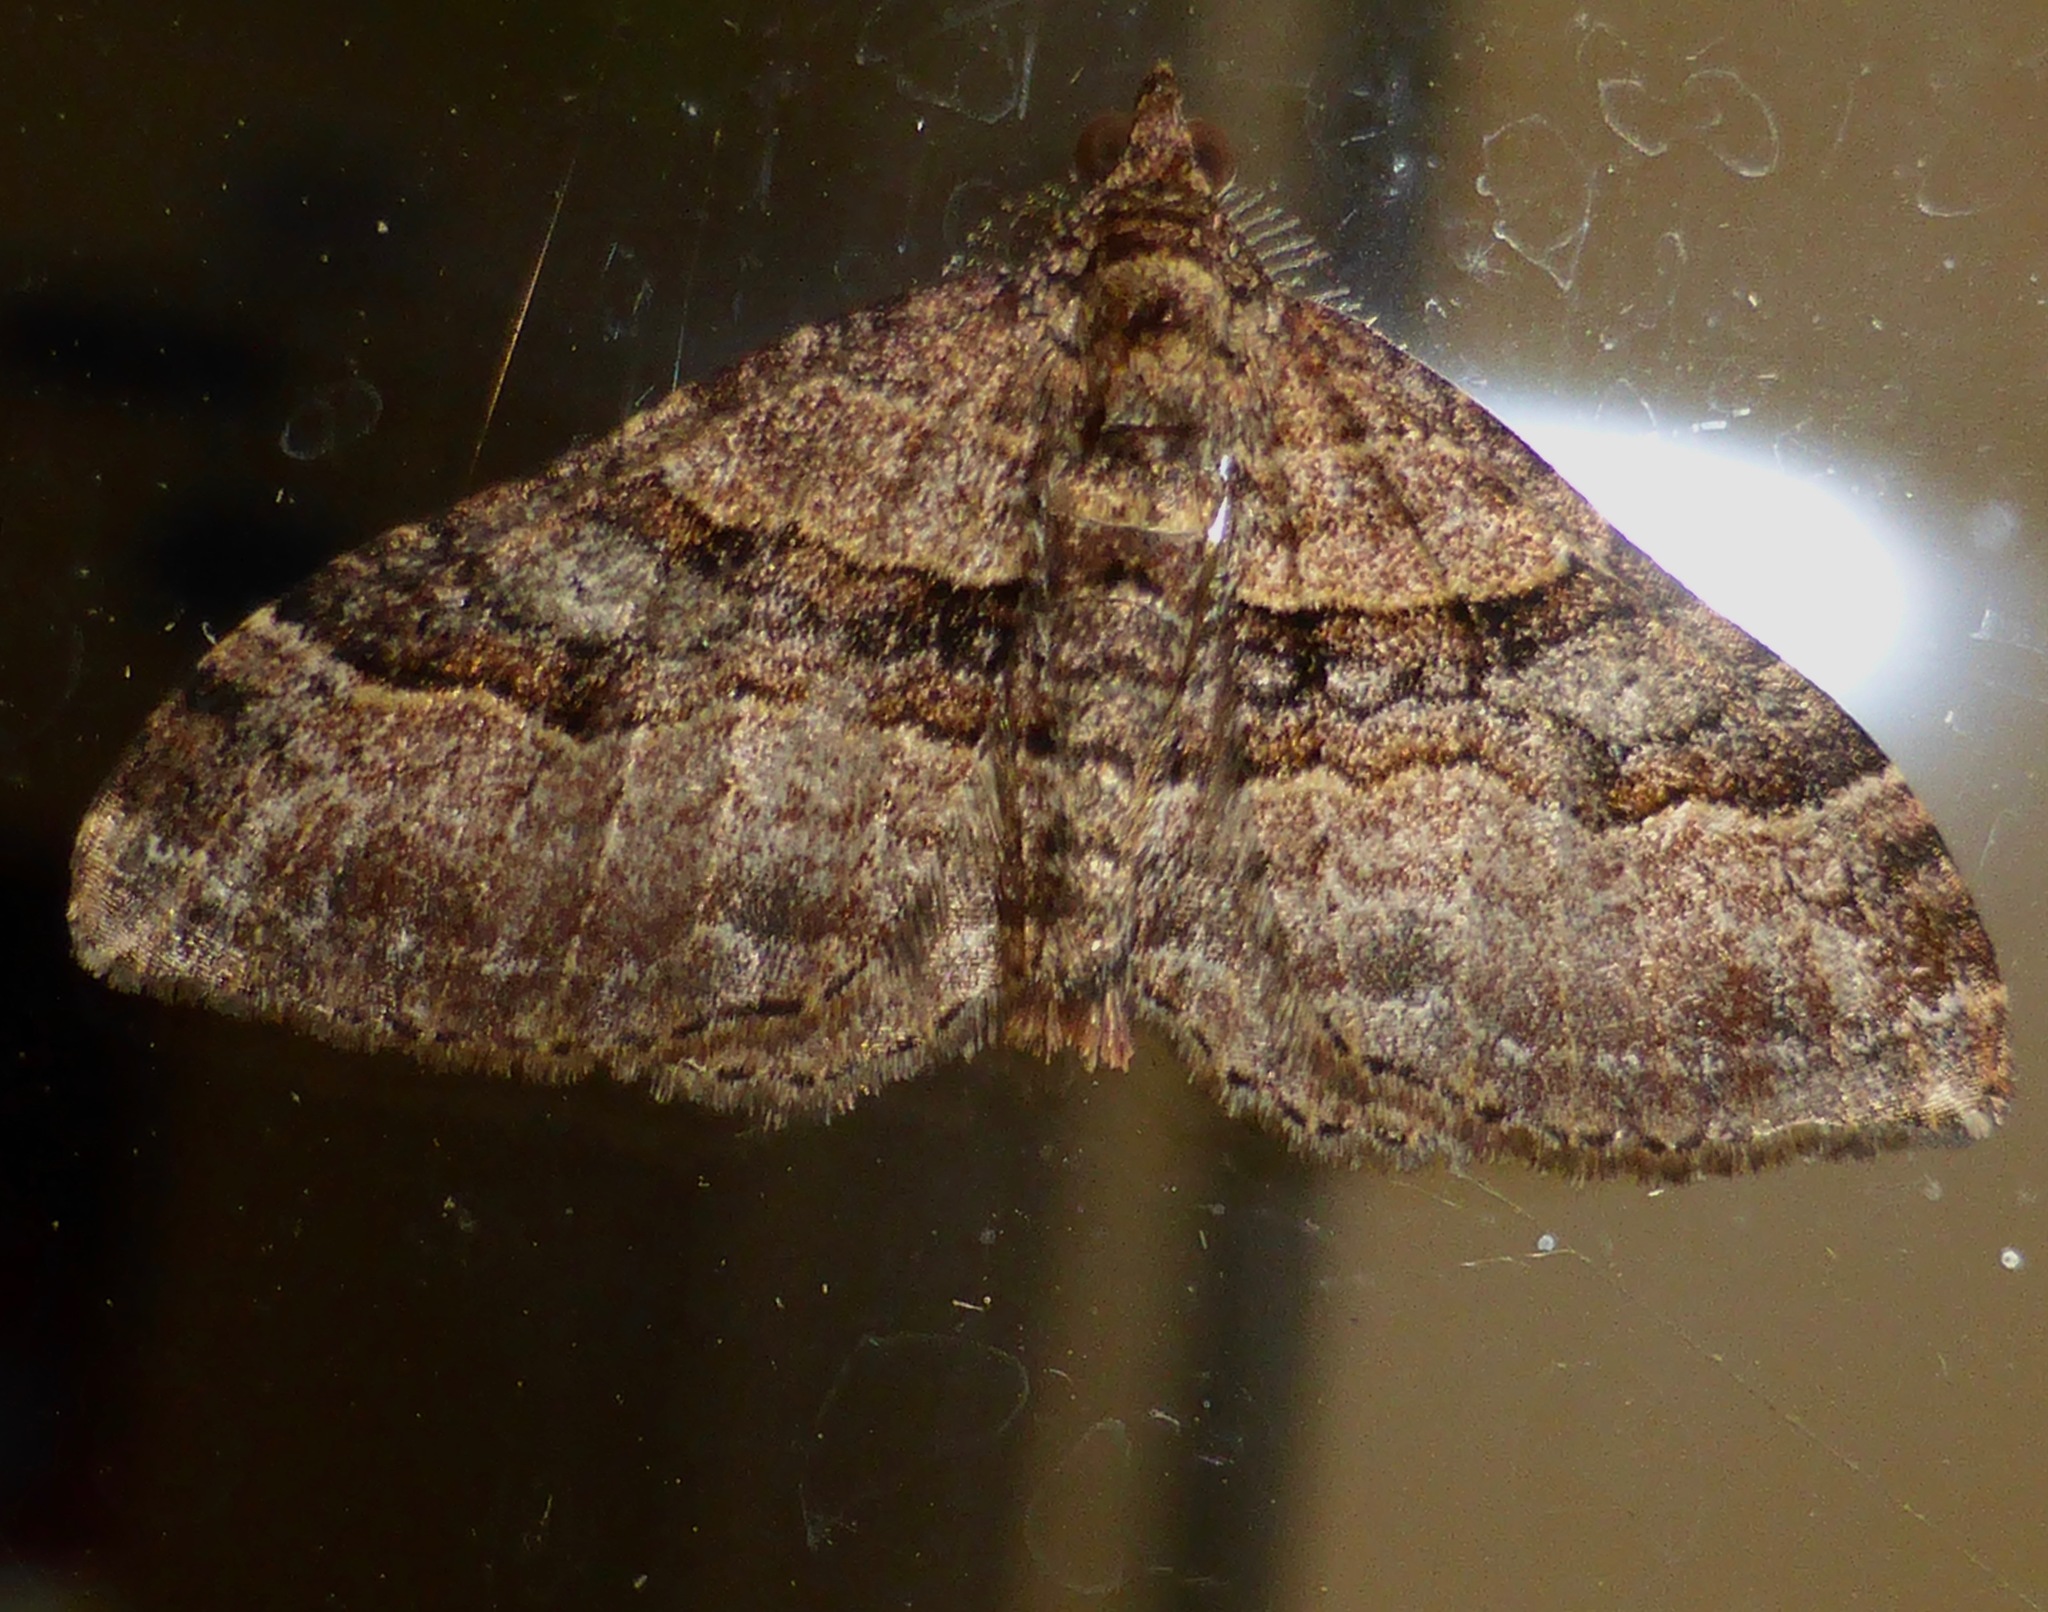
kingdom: Animalia
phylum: Arthropoda
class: Insecta
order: Lepidoptera
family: Geometridae
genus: Epyaxa
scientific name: Epyaxa lucidata
